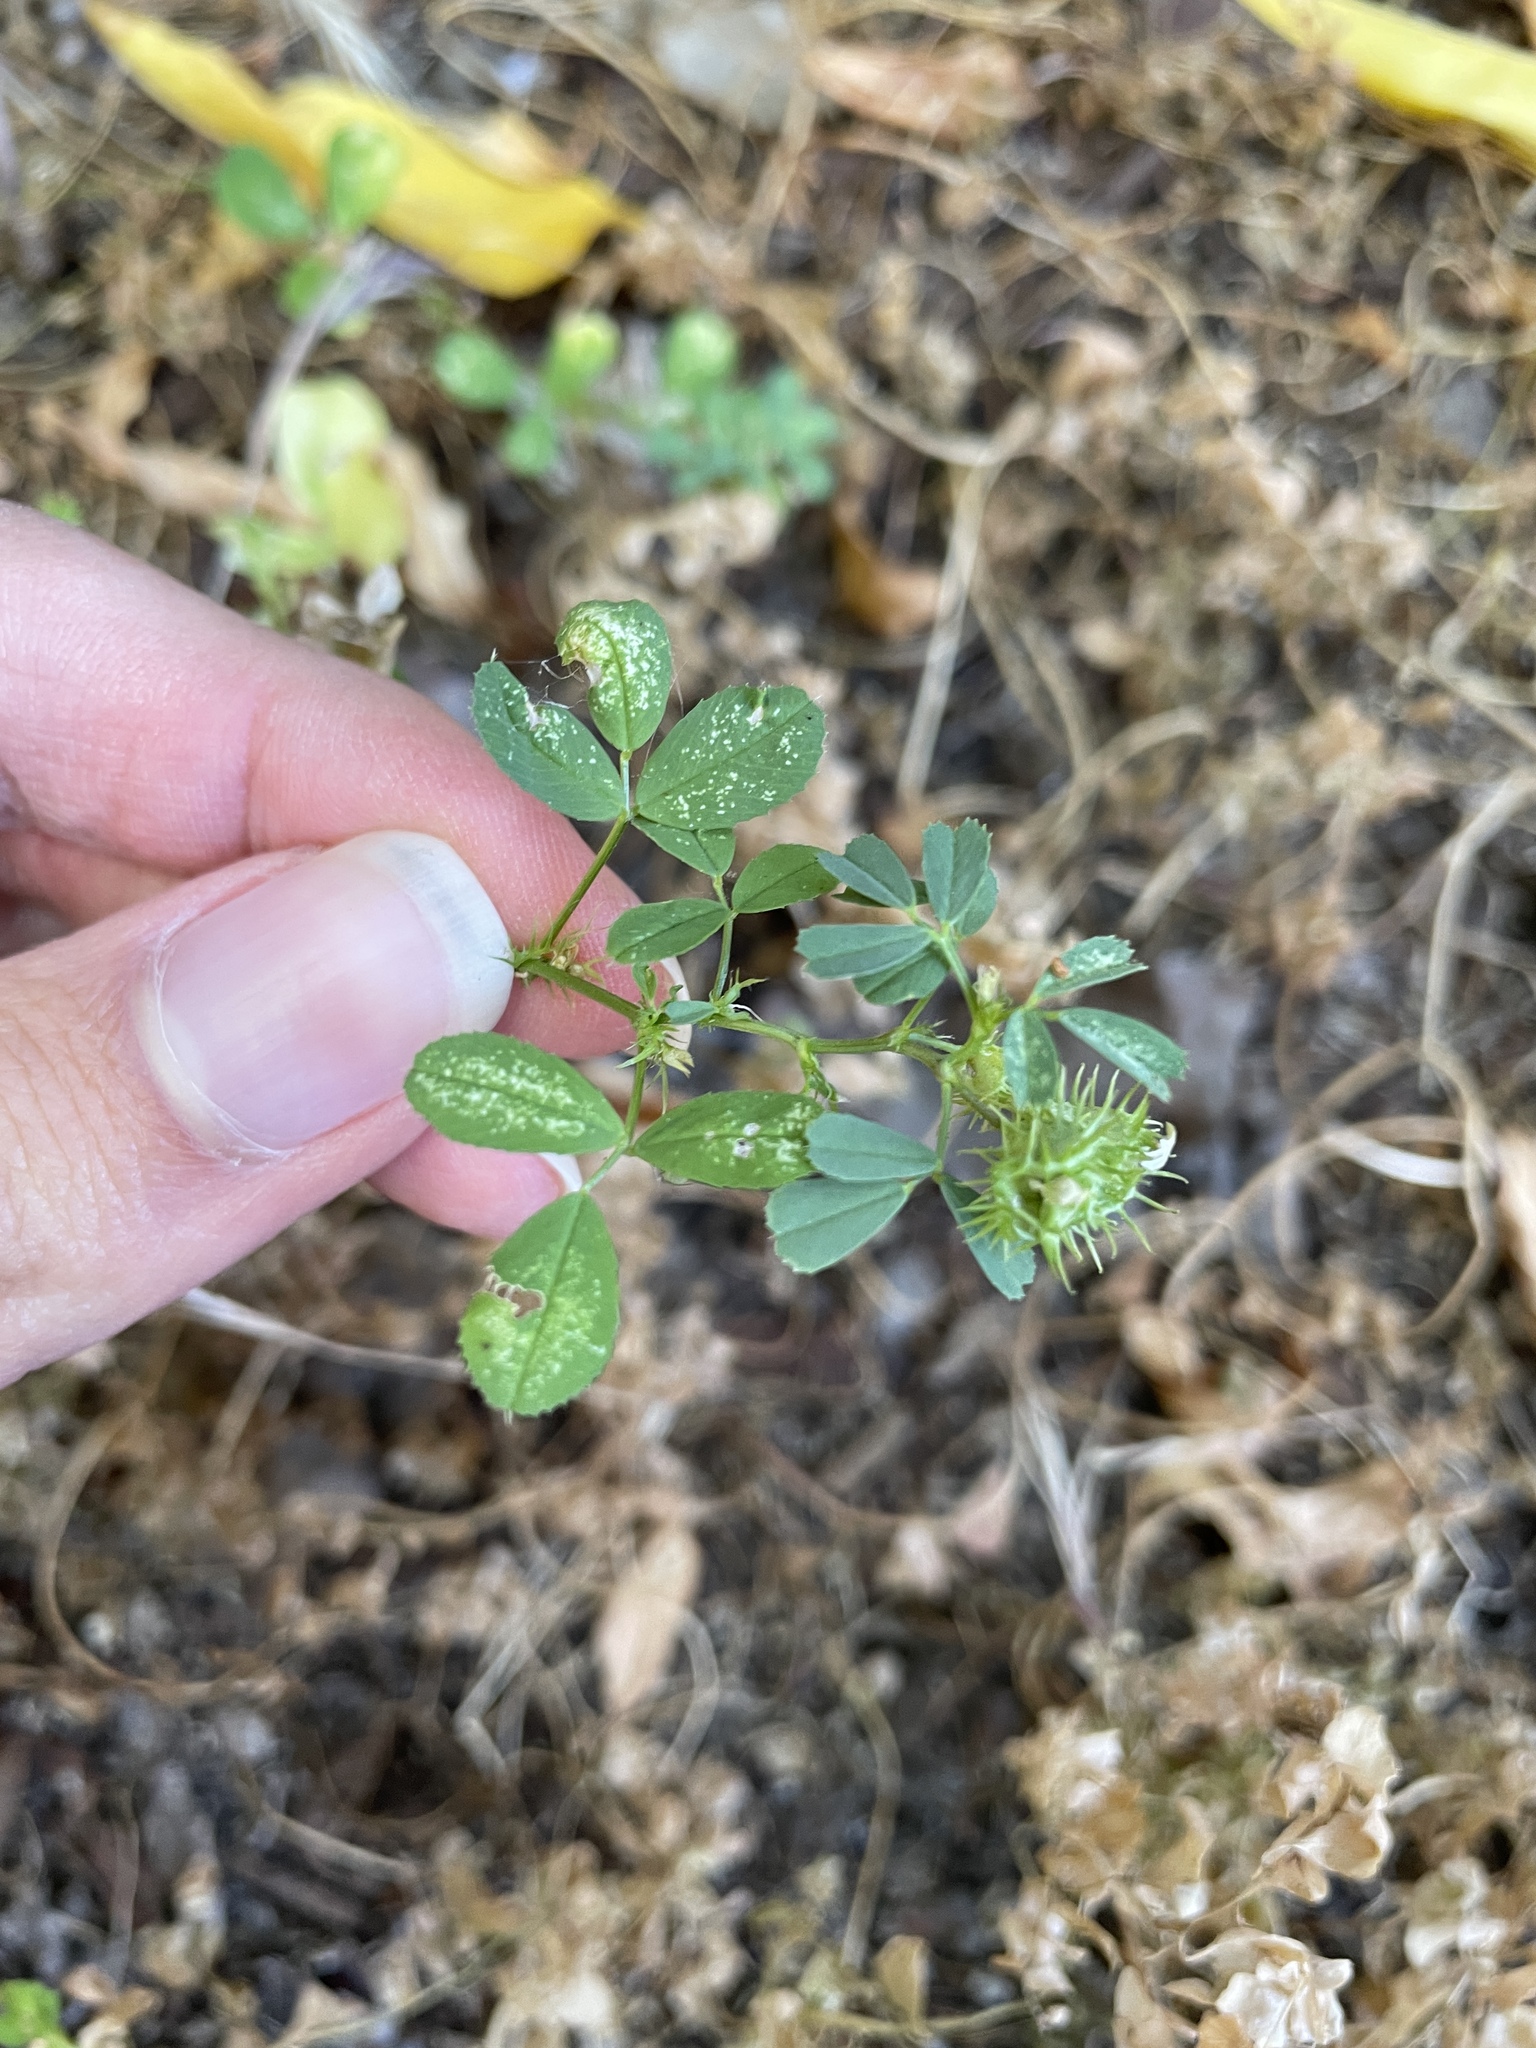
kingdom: Plantae
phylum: Tracheophyta
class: Magnoliopsida
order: Fabales
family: Fabaceae
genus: Medicago
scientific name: Medicago polymorpha
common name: Burclover
